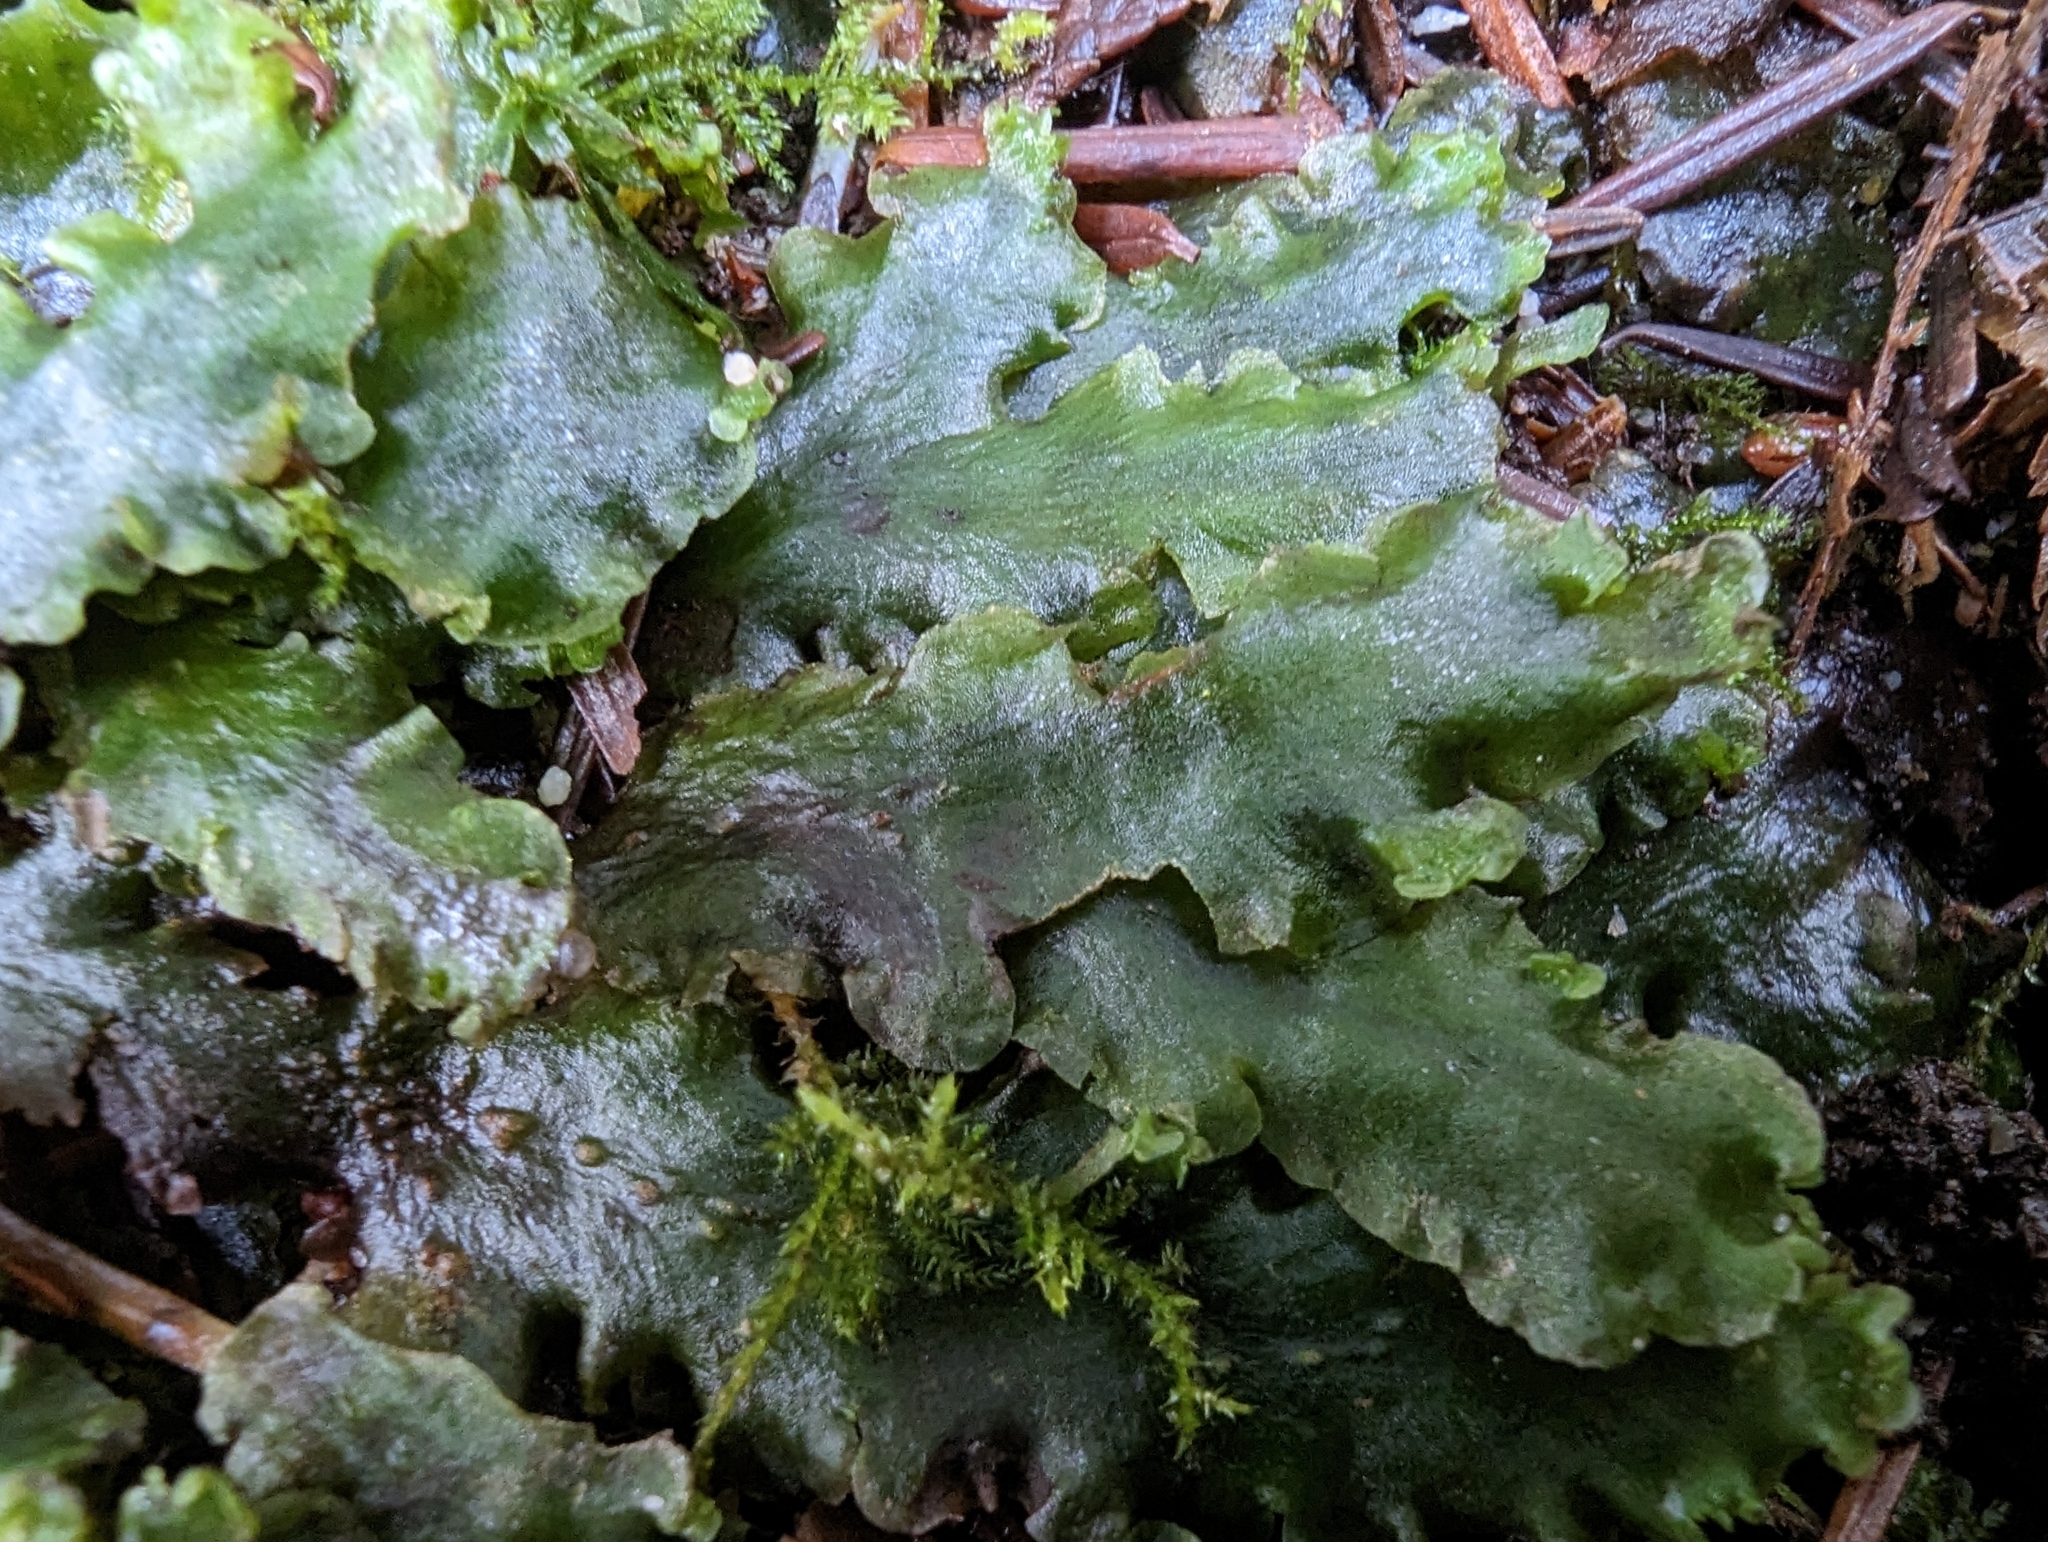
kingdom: Plantae
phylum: Marchantiophyta
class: Jungermanniopsida
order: Pelliales
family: Pelliaceae
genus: Pellia
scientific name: Pellia neesiana
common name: Nees  pellia
